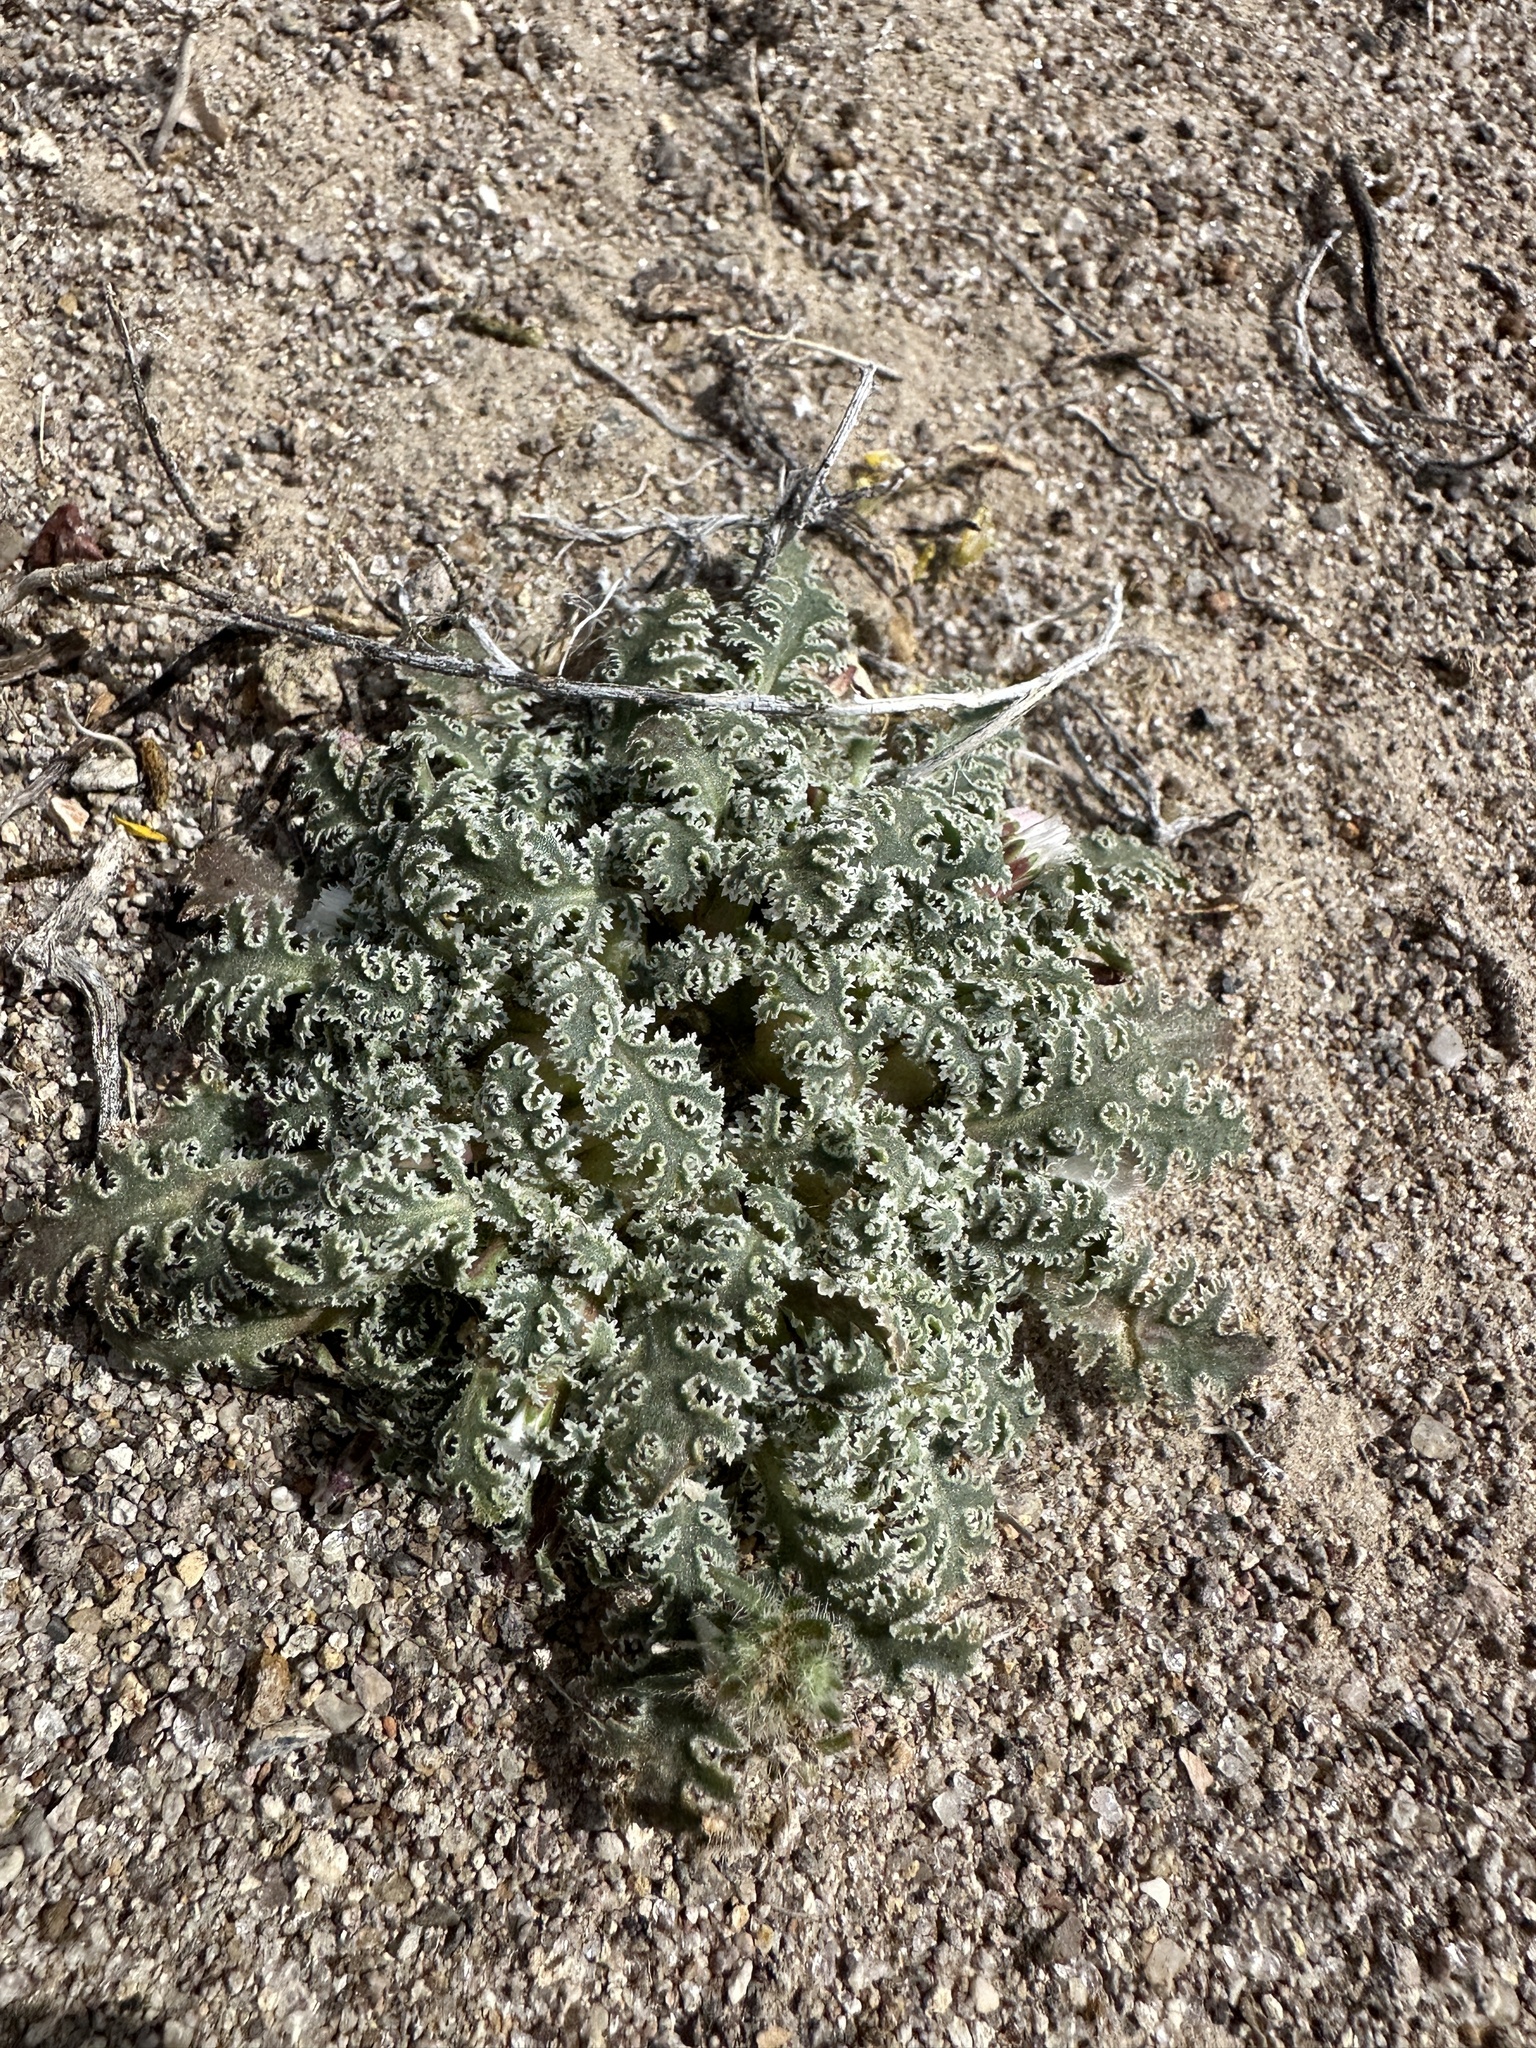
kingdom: Plantae
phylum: Tracheophyta
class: Magnoliopsida
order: Asterales
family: Asteraceae
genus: Glyptopleura
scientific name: Glyptopleura marginata
